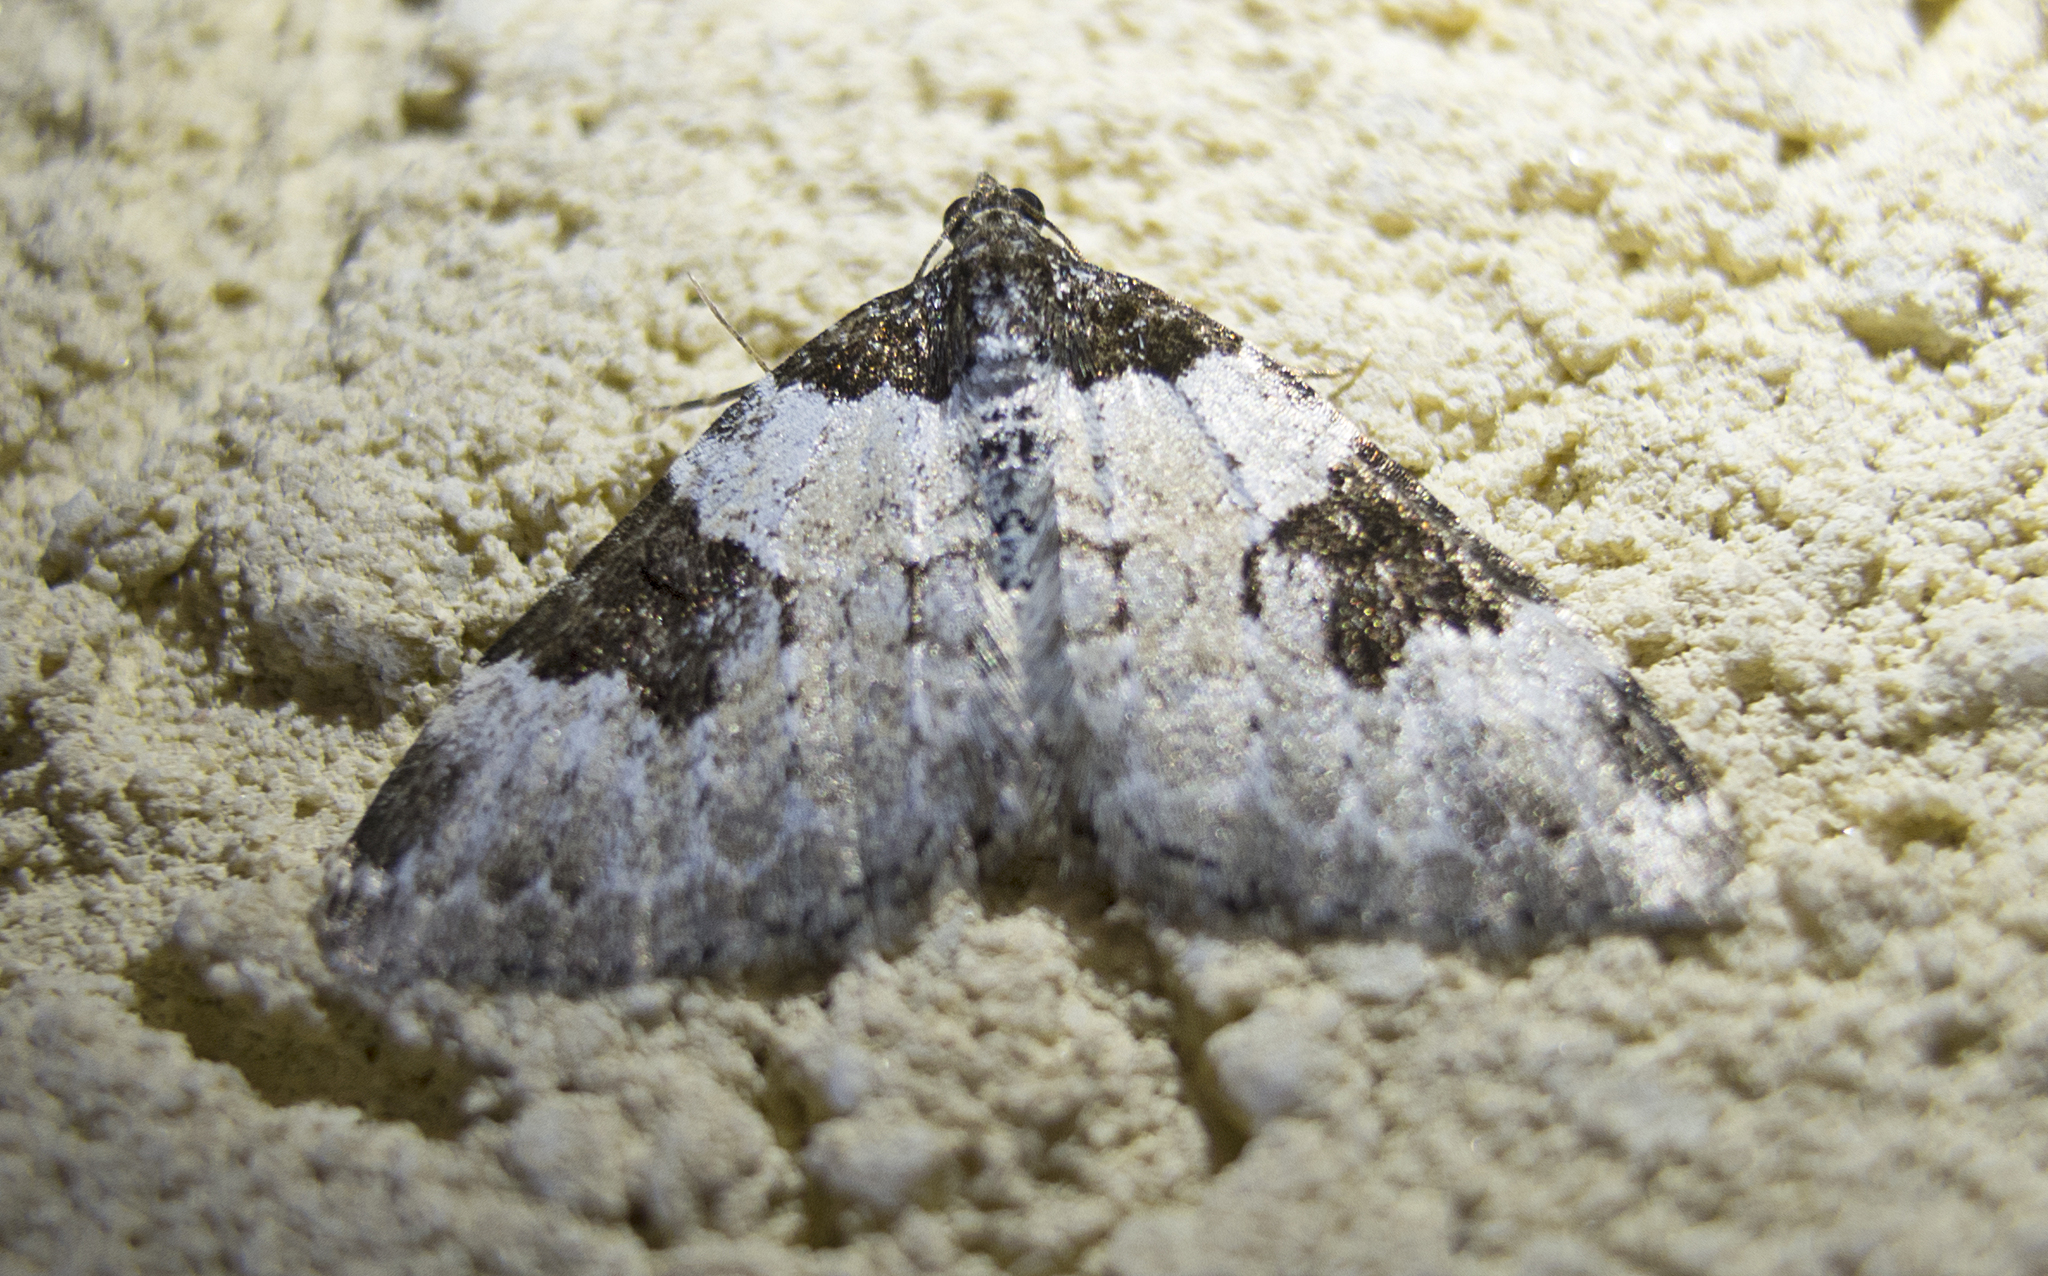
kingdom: Animalia
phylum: Arthropoda
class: Insecta
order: Lepidoptera
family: Geometridae
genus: Xanthorhoe
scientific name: Xanthorhoe fluctuata
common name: Garden carpet
